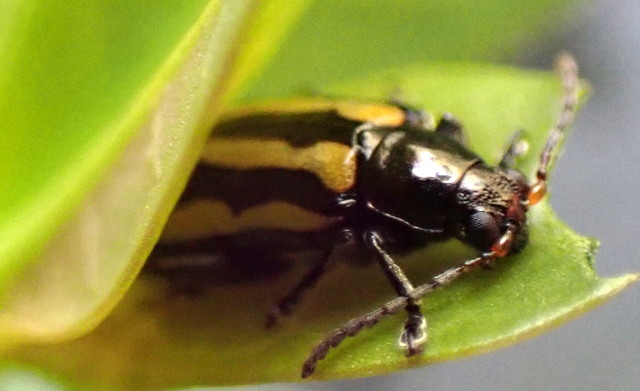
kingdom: Animalia
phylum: Arthropoda
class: Insecta
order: Coleoptera
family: Chrysomelidae
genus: Agasicles
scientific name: Agasicles hygrophila
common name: Alligatorweed flea beetle
